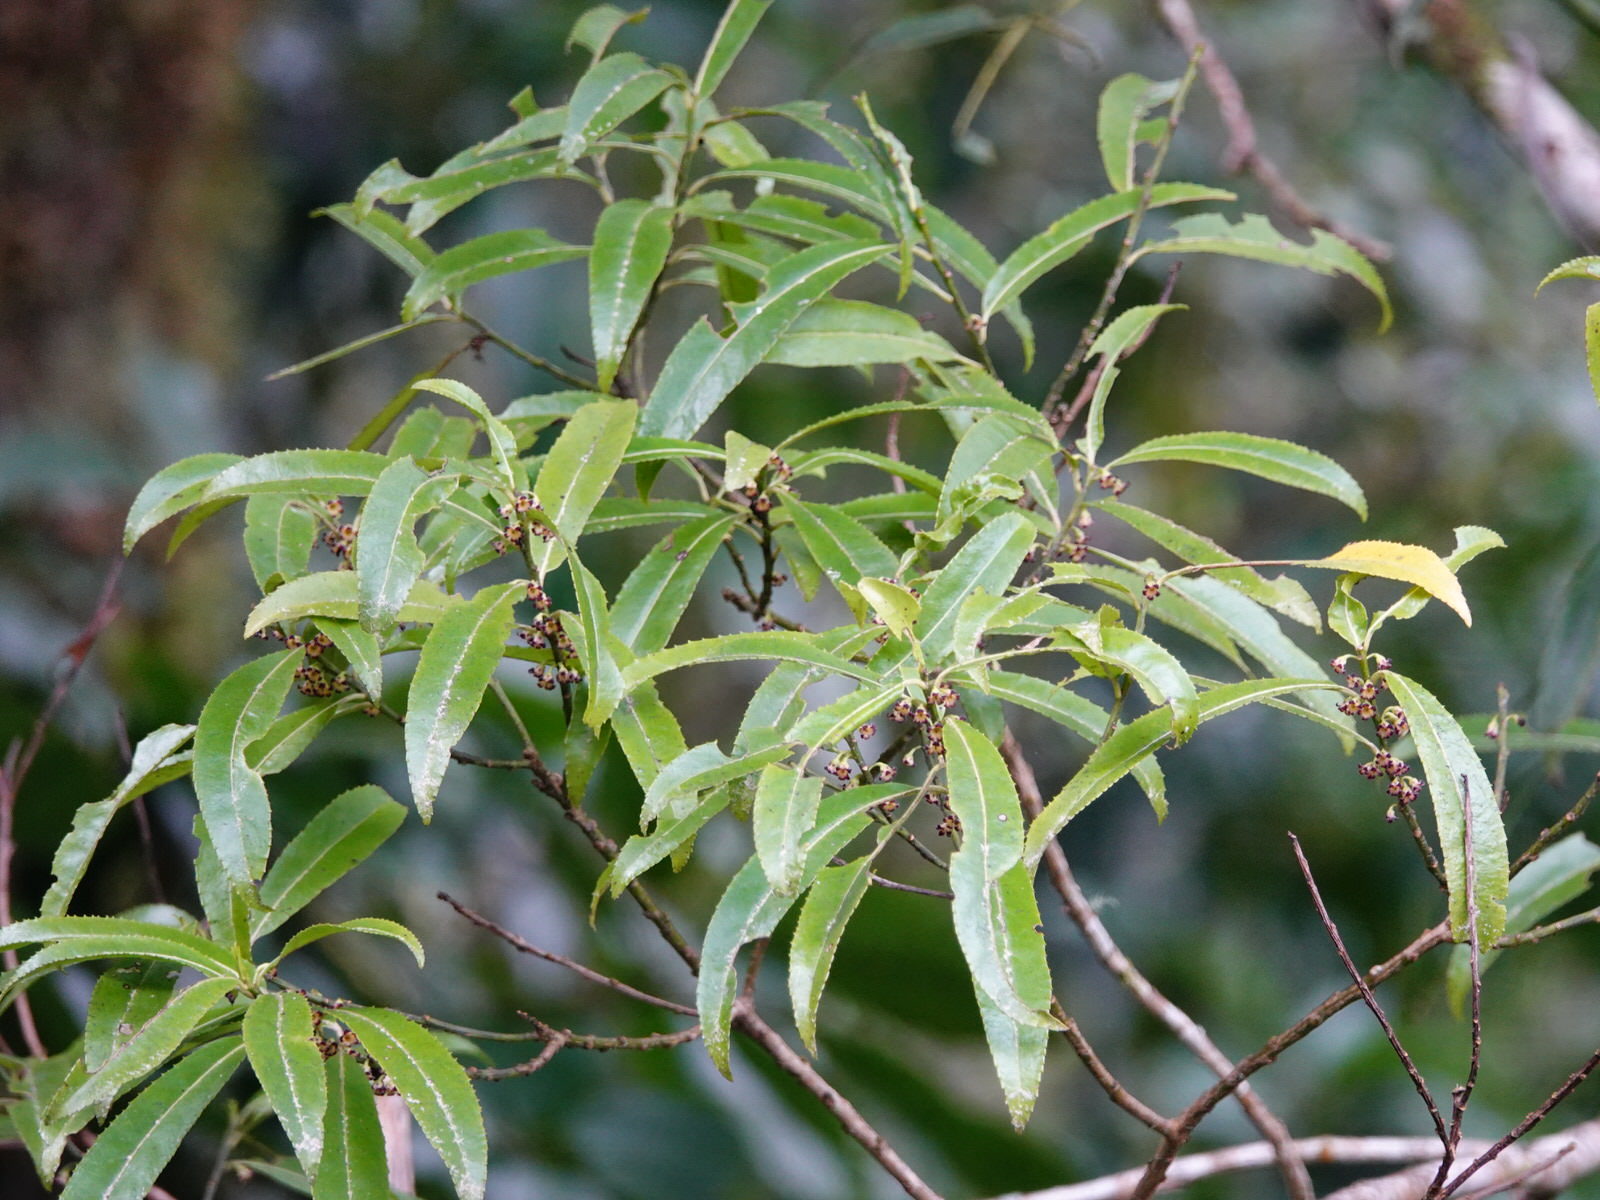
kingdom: Plantae
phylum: Tracheophyta
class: Magnoliopsida
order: Malpighiales
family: Violaceae
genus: Melicytus
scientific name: Melicytus lanceolatus
